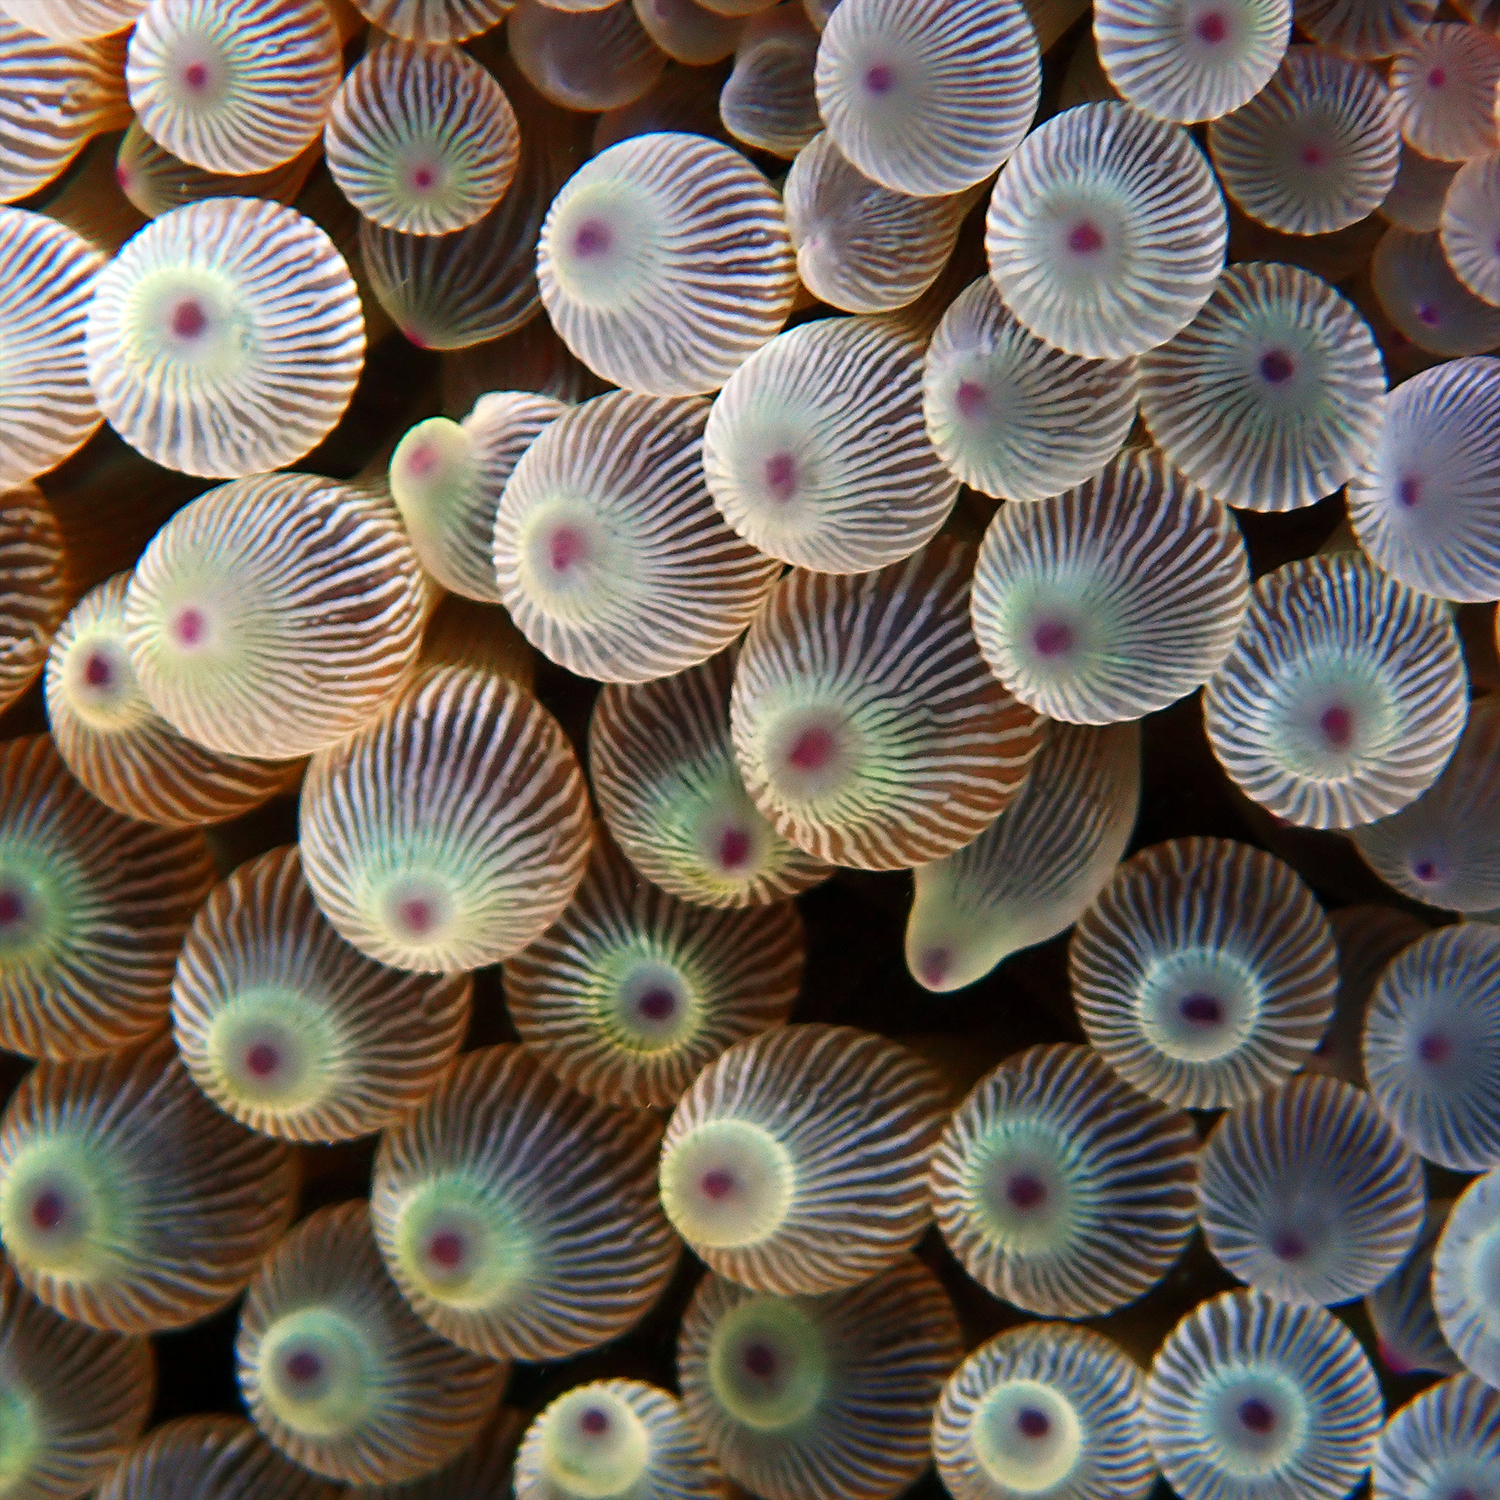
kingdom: Animalia
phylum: Cnidaria
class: Anthozoa
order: Actiniaria
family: Actiniidae
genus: Entacmaea
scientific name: Entacmaea quadricolor
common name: Bulb tentacle sea anemone
